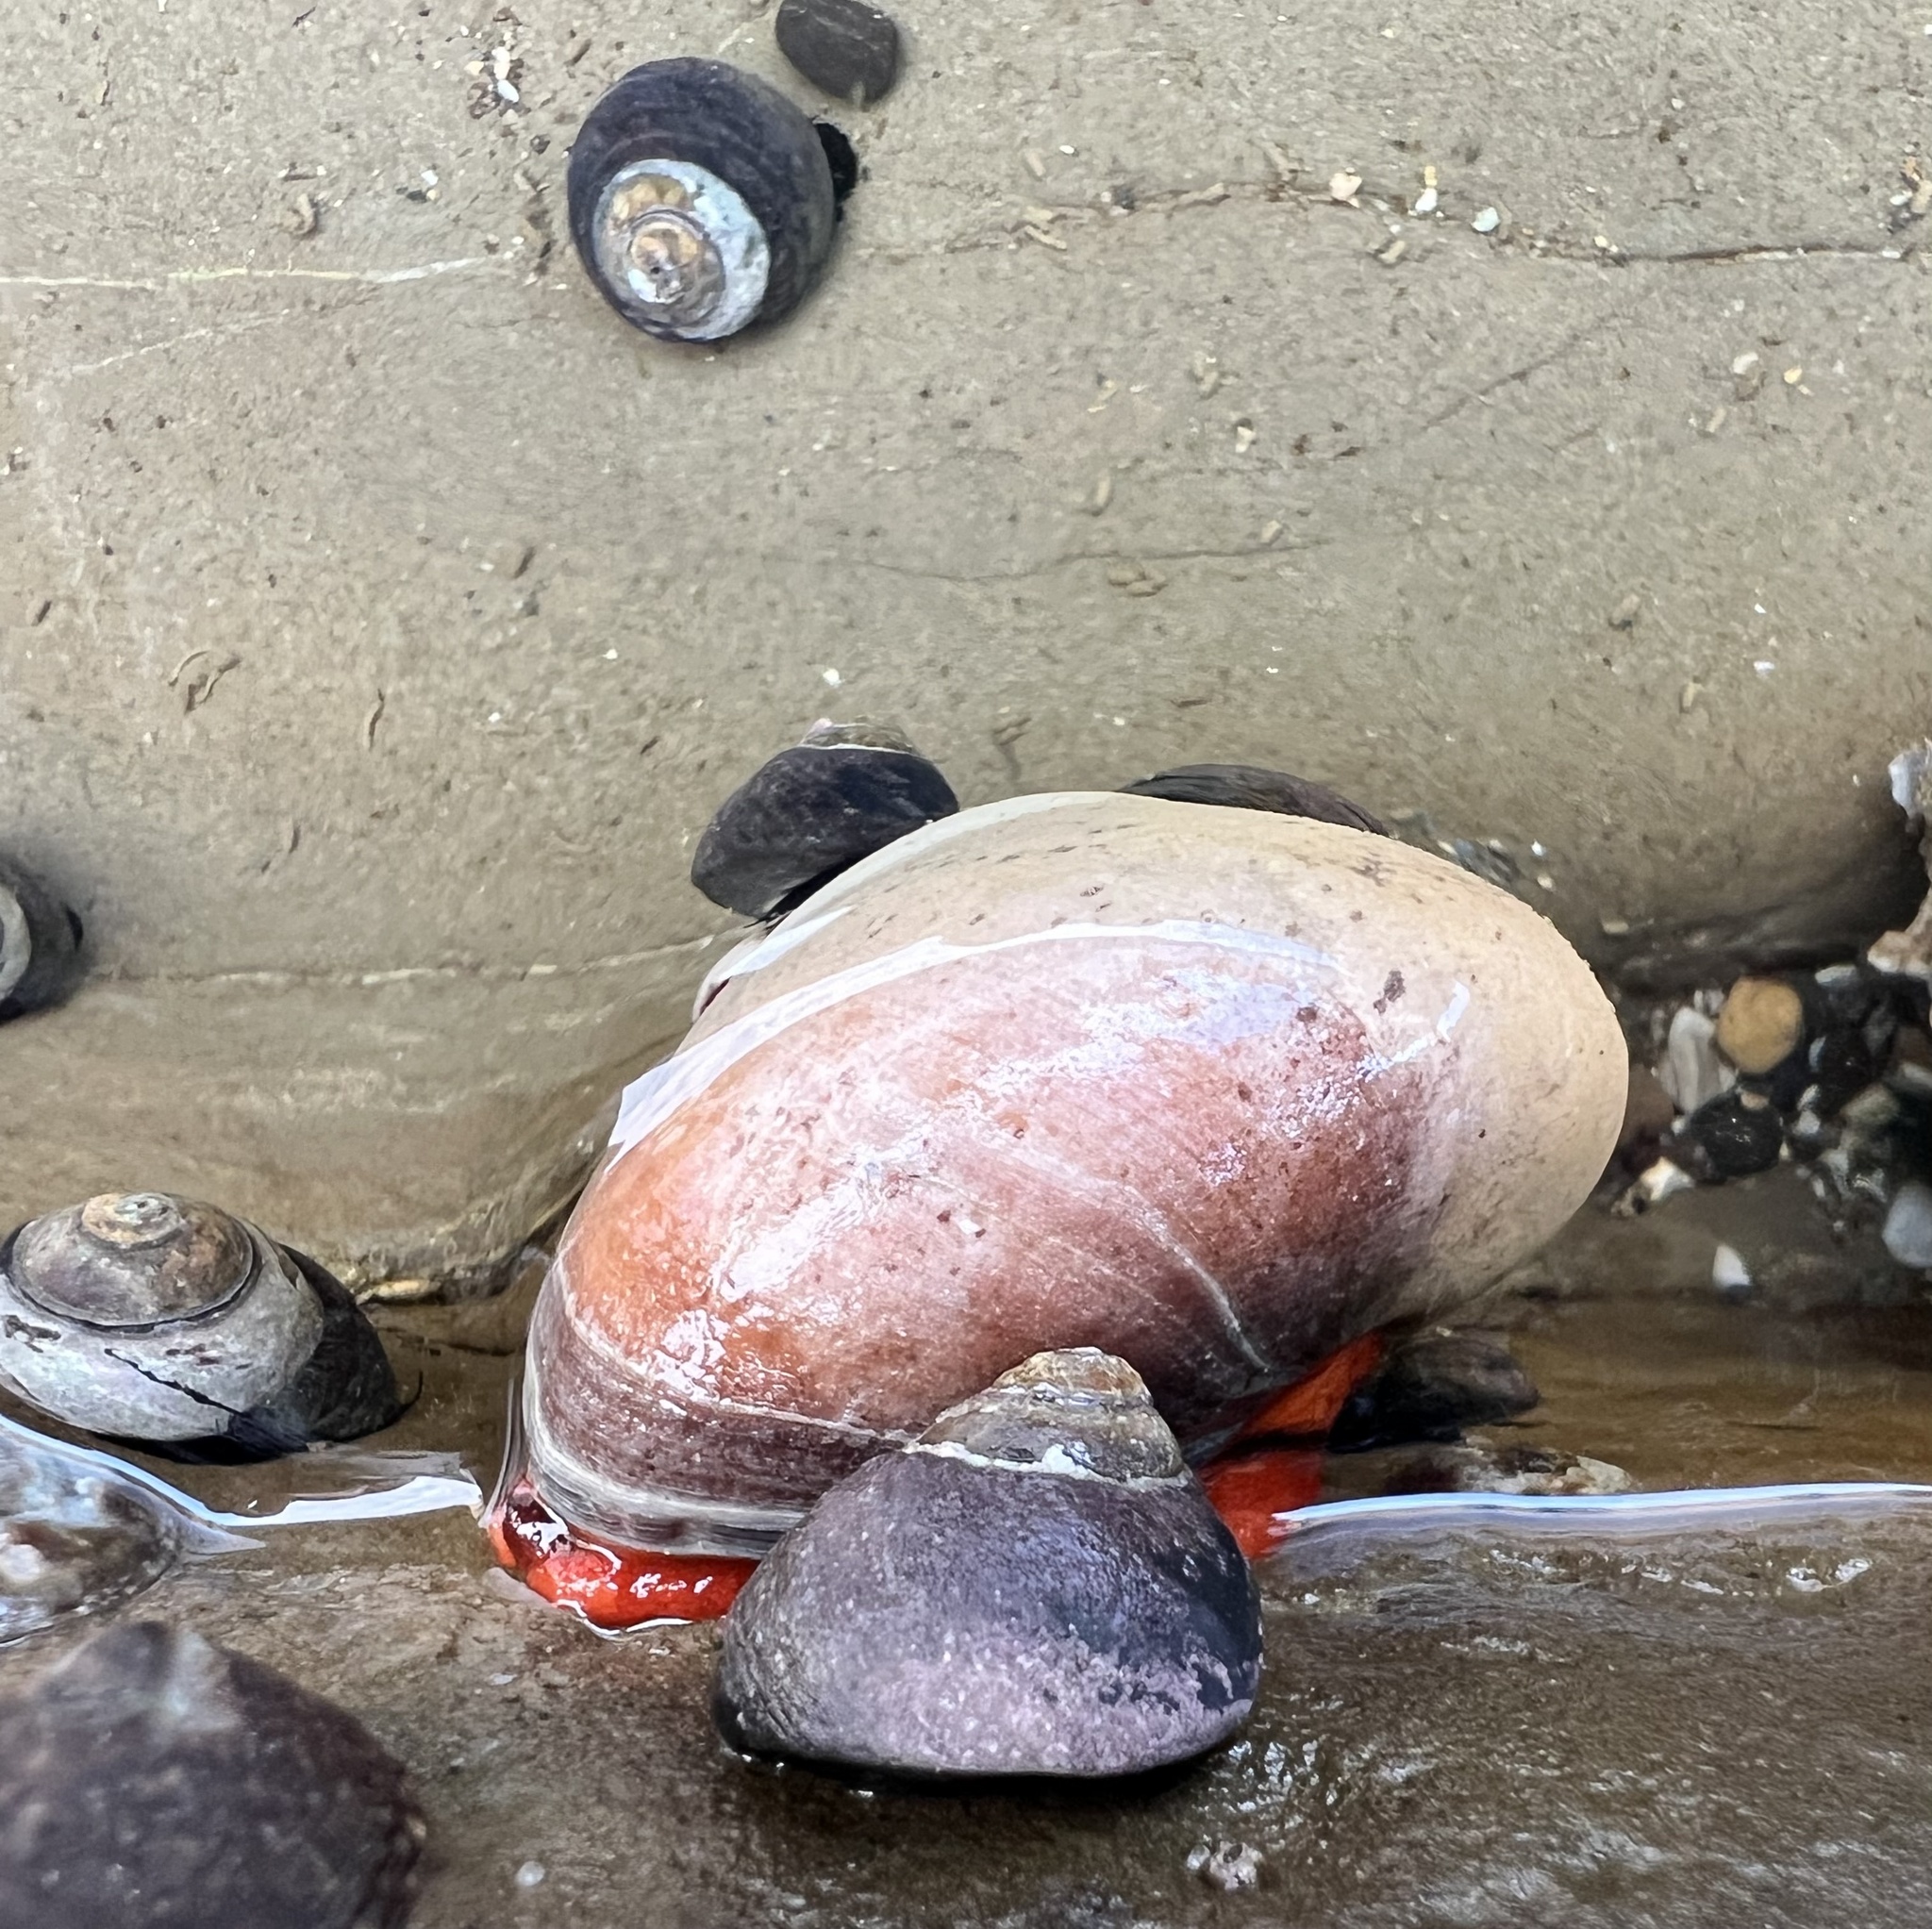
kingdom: Animalia
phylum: Mollusca
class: Gastropoda
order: Trochida
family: Tegulidae
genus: Norrisia
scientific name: Norrisia norrisii
